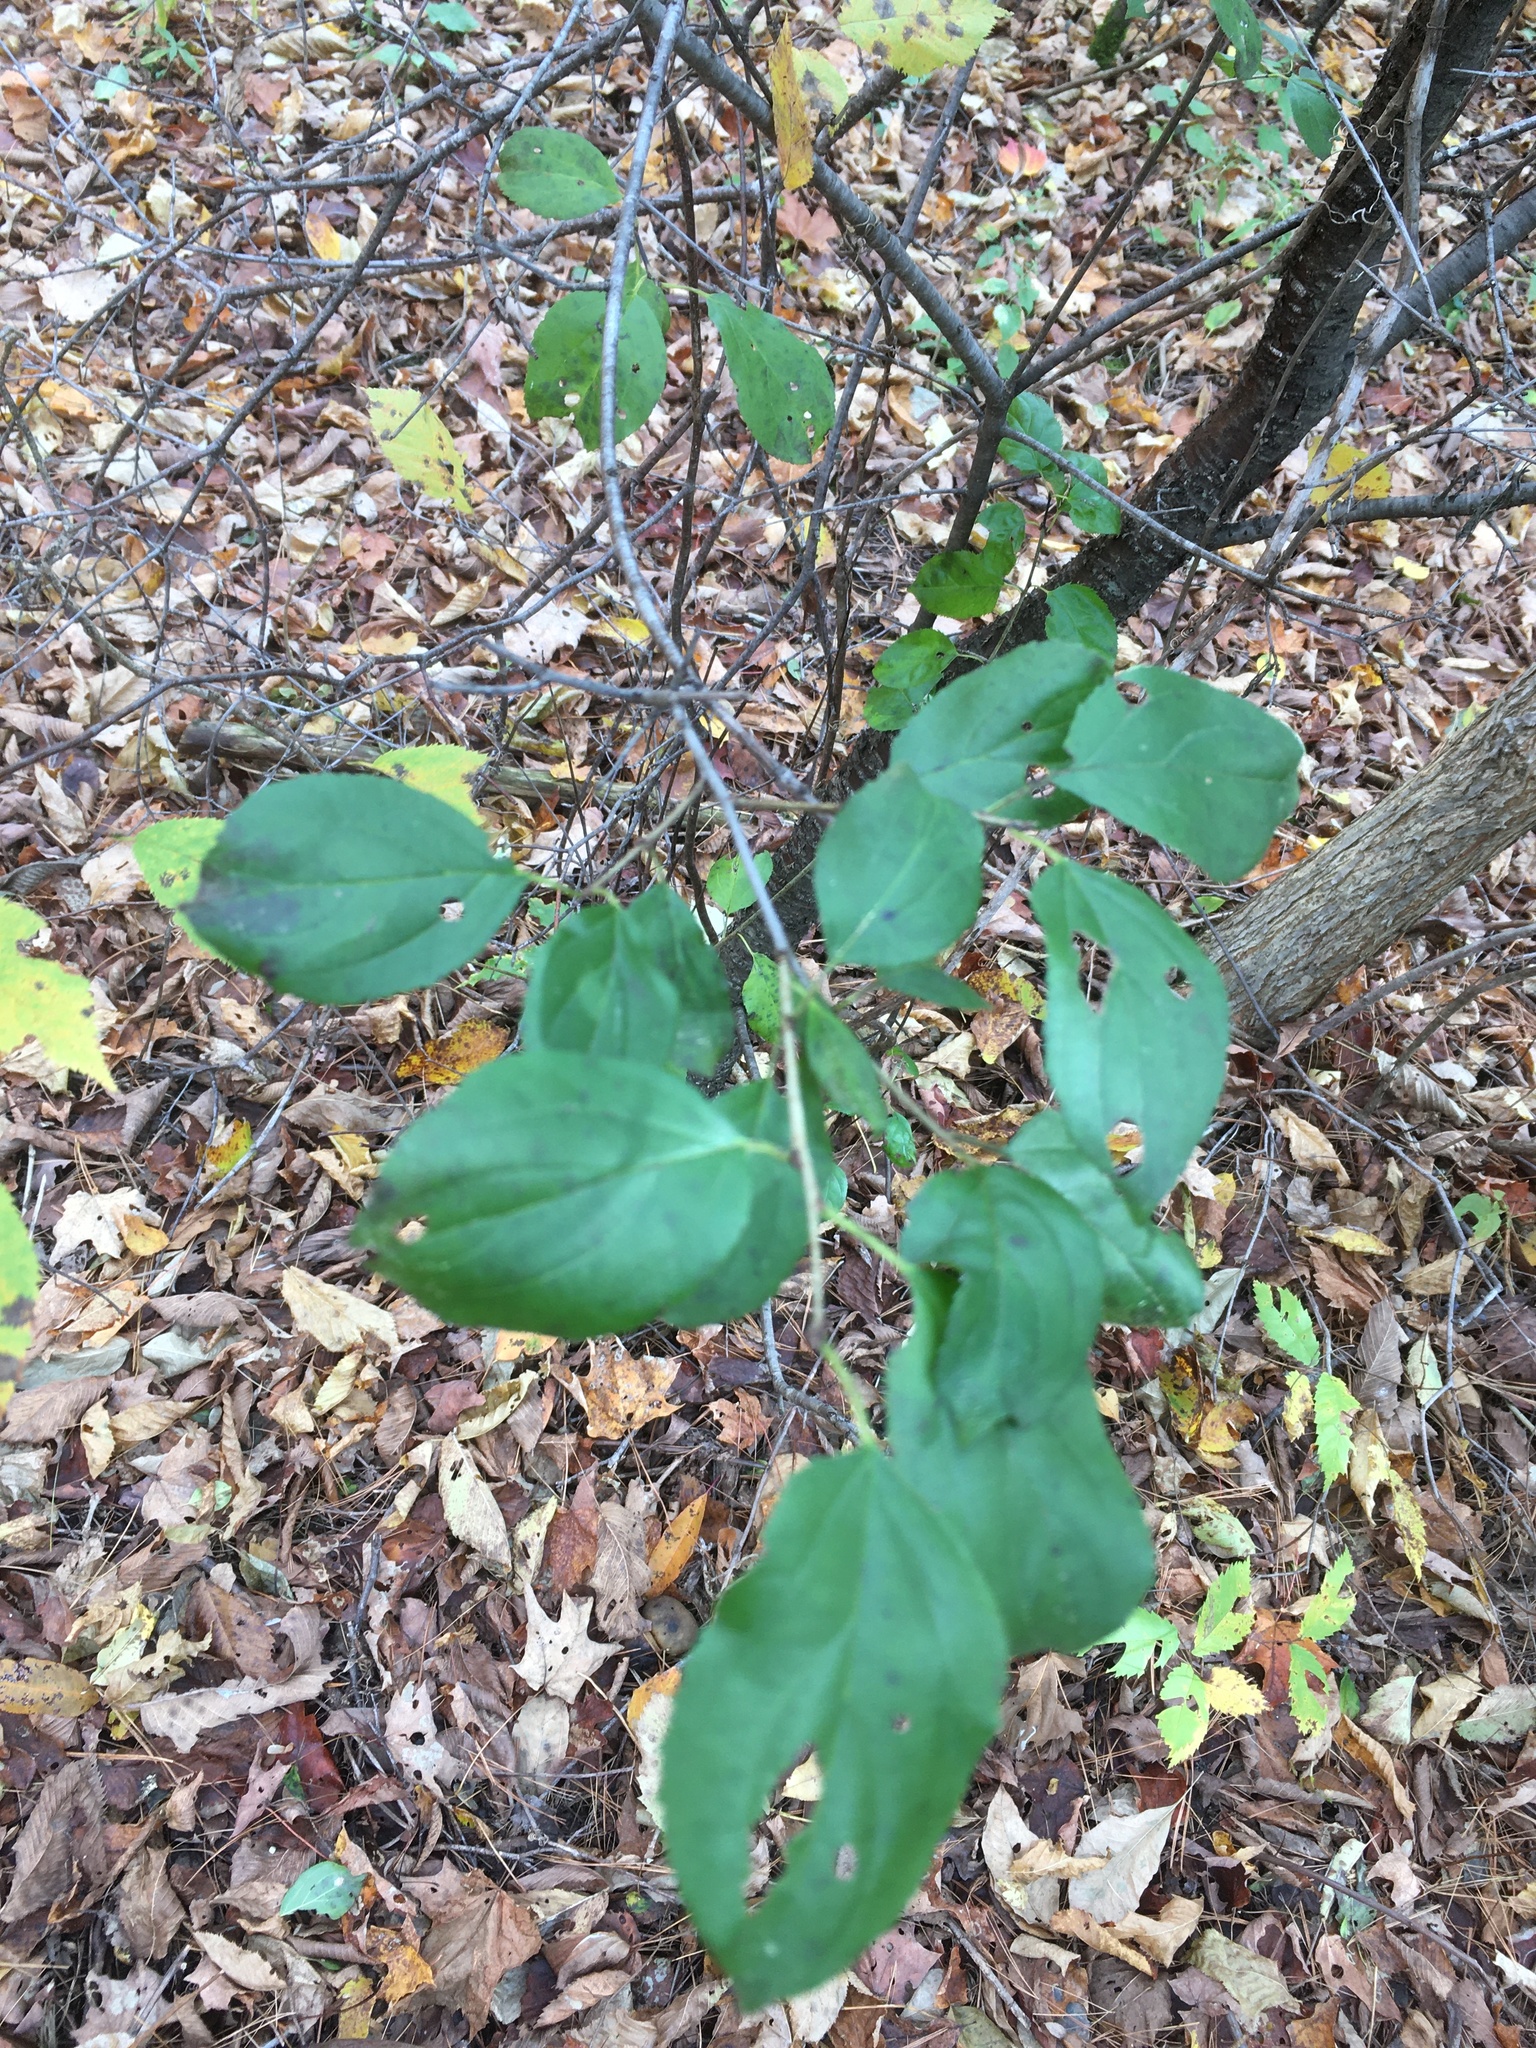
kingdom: Plantae
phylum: Tracheophyta
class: Magnoliopsida
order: Rosales
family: Rhamnaceae
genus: Rhamnus
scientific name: Rhamnus cathartica
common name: Common buckthorn
